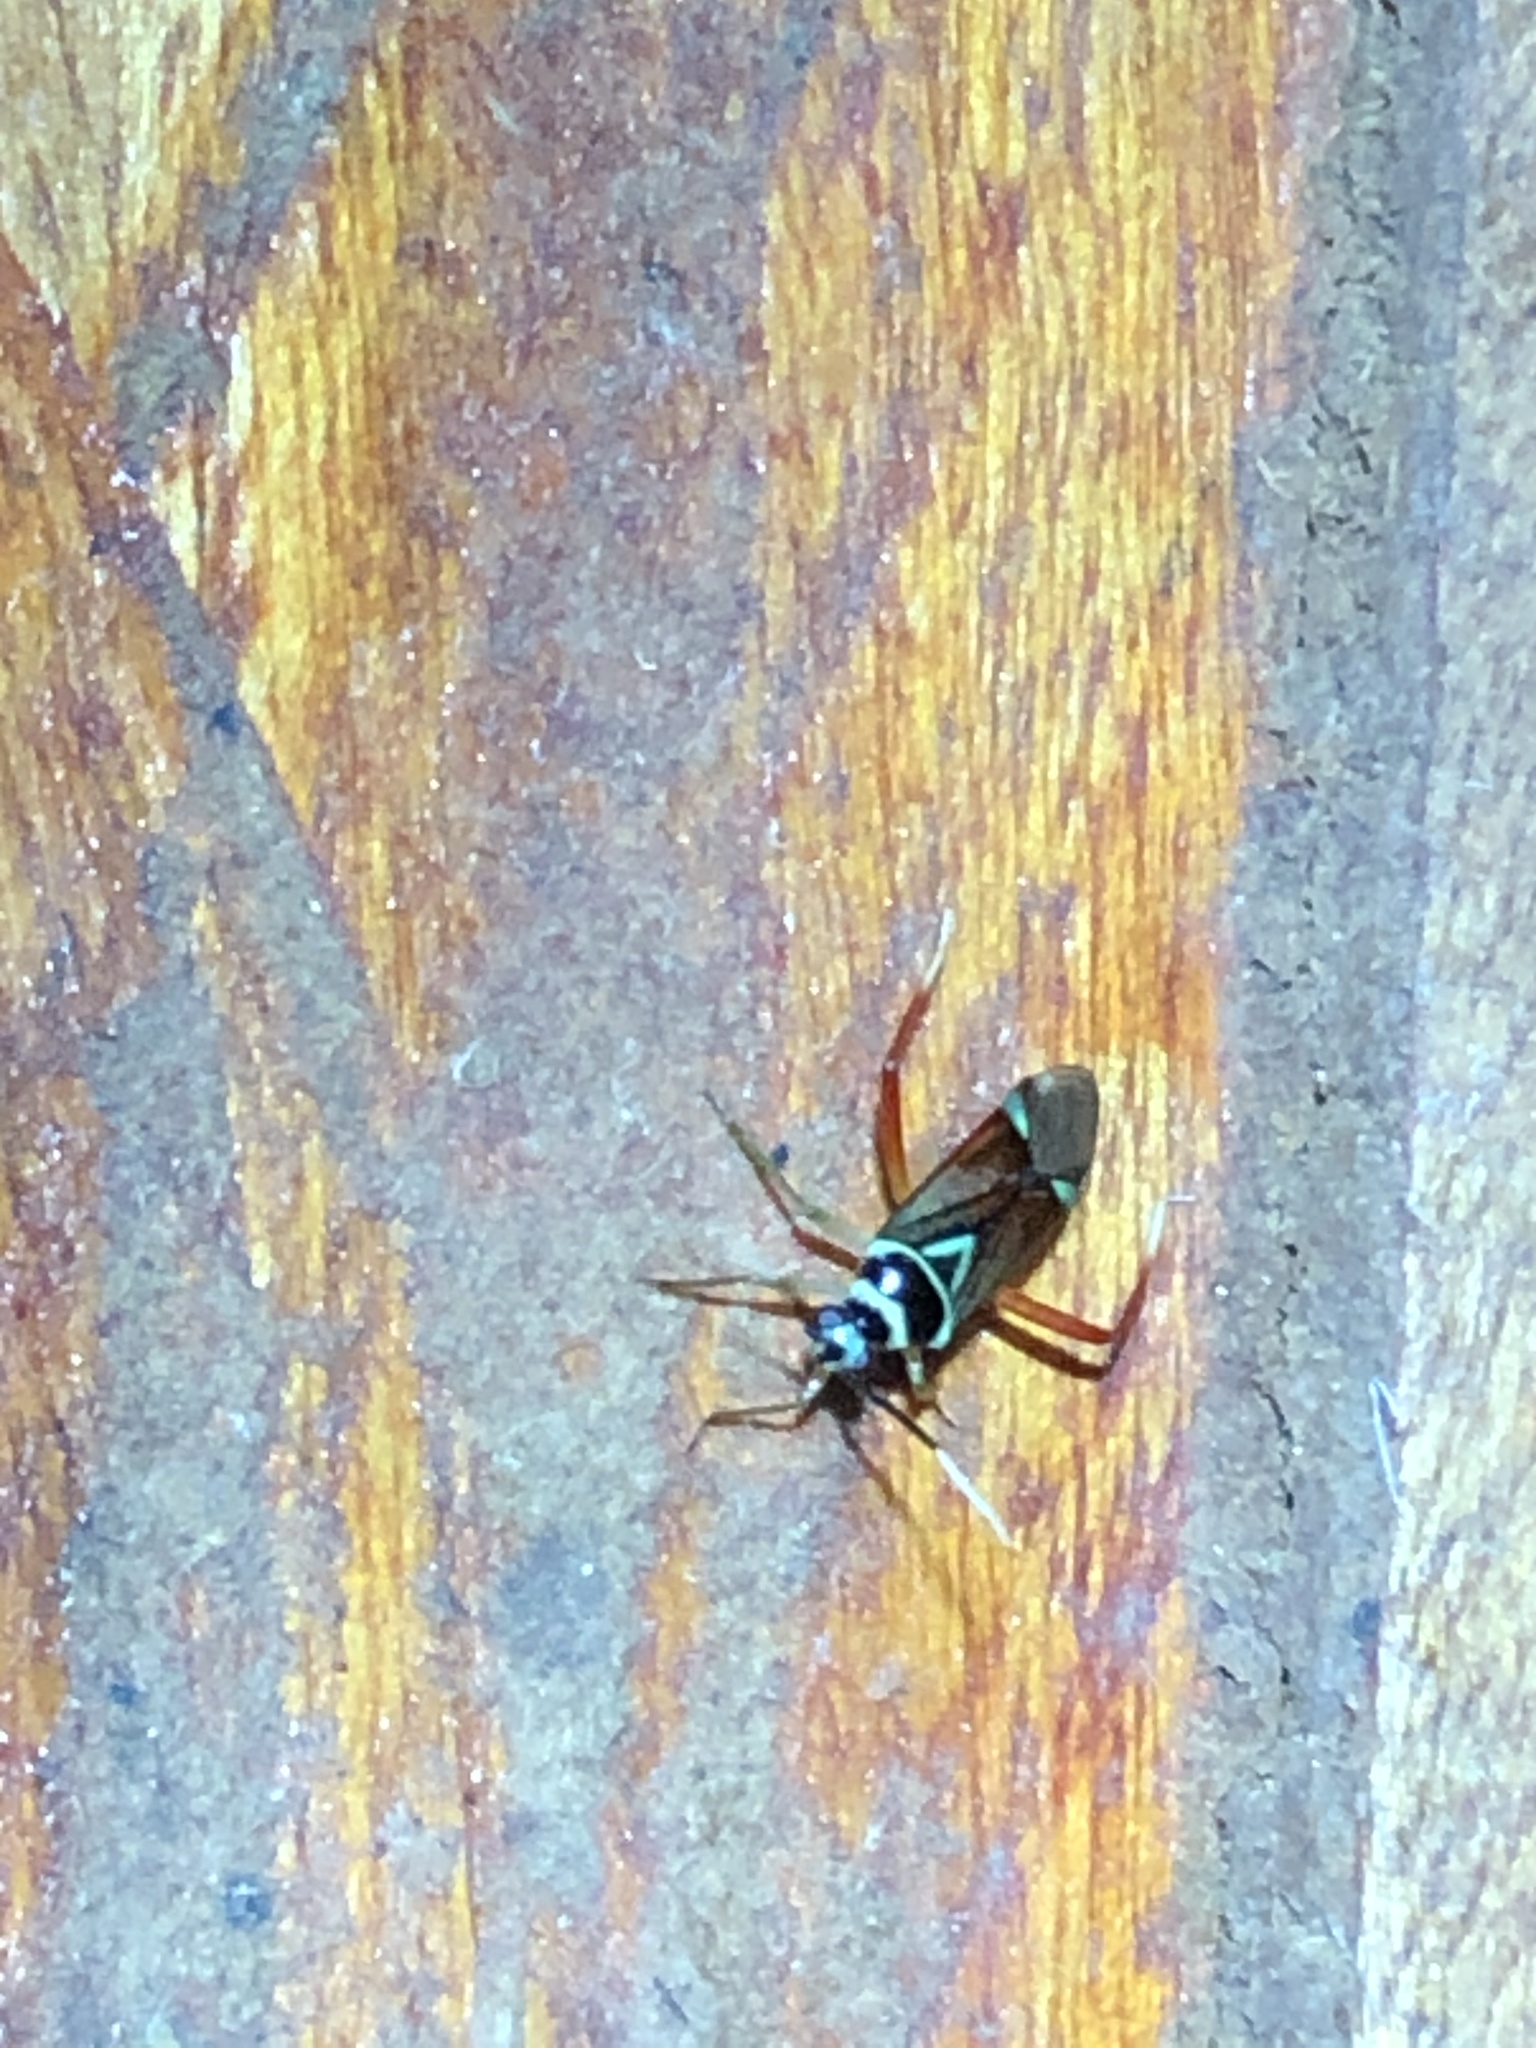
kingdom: Animalia
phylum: Arthropoda
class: Insecta
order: Hemiptera
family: Miridae
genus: Calondas
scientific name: Calondas fasciatus
